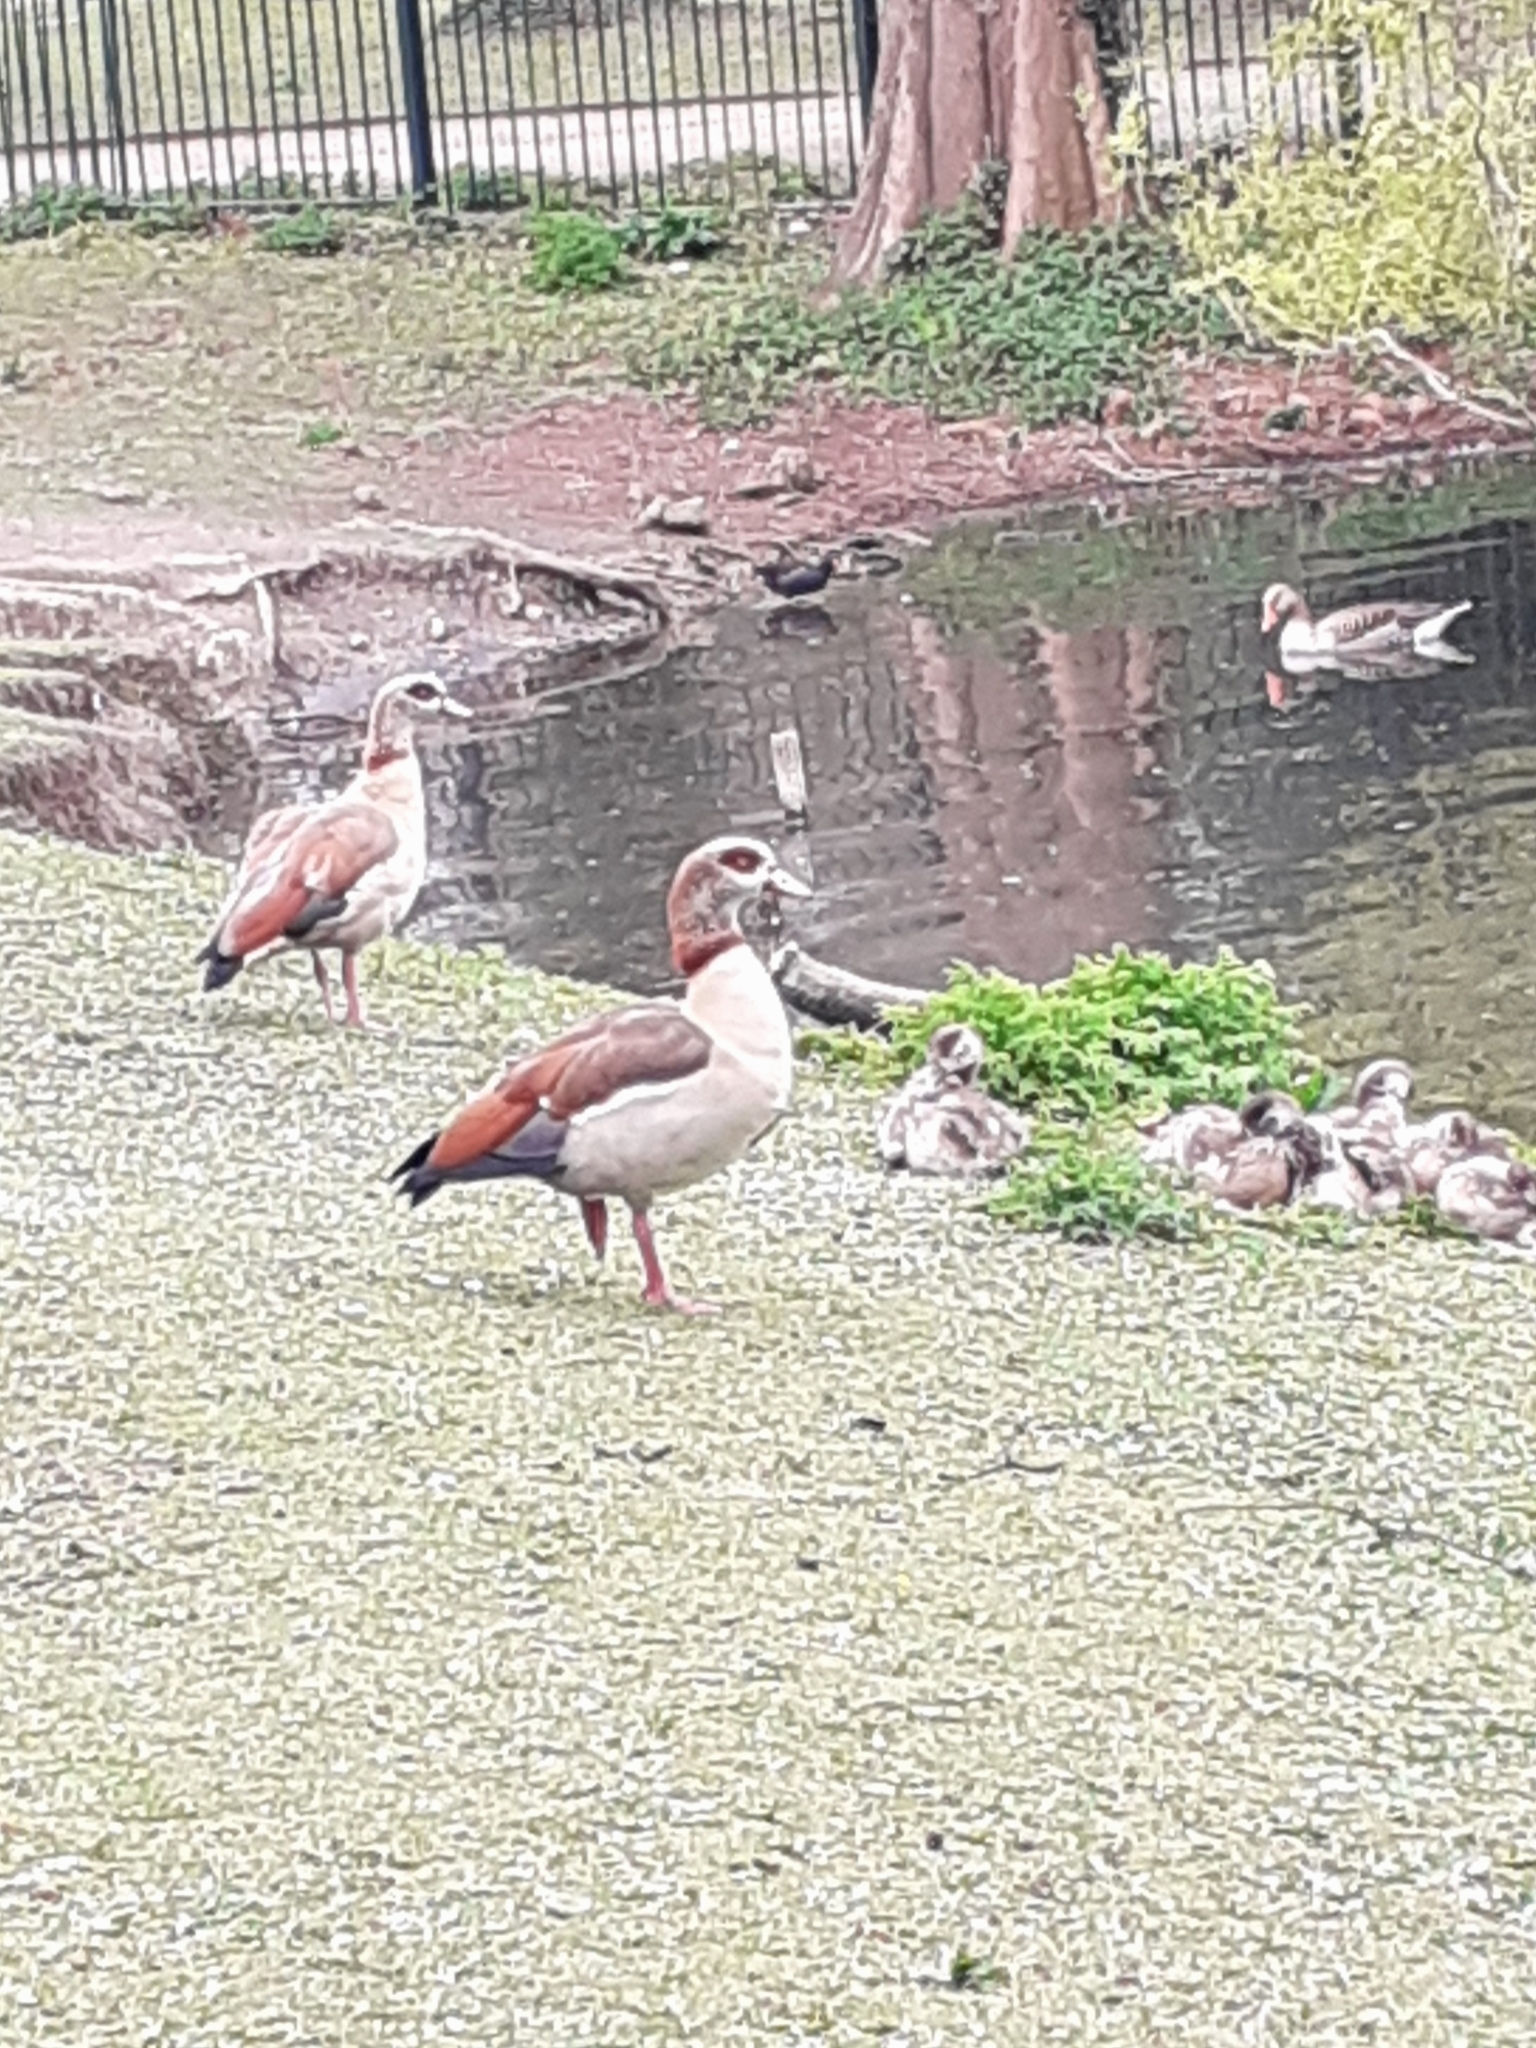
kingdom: Animalia
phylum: Chordata
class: Aves
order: Anseriformes
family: Anatidae
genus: Alopochen
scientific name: Alopochen aegyptiaca
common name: Egyptian goose
